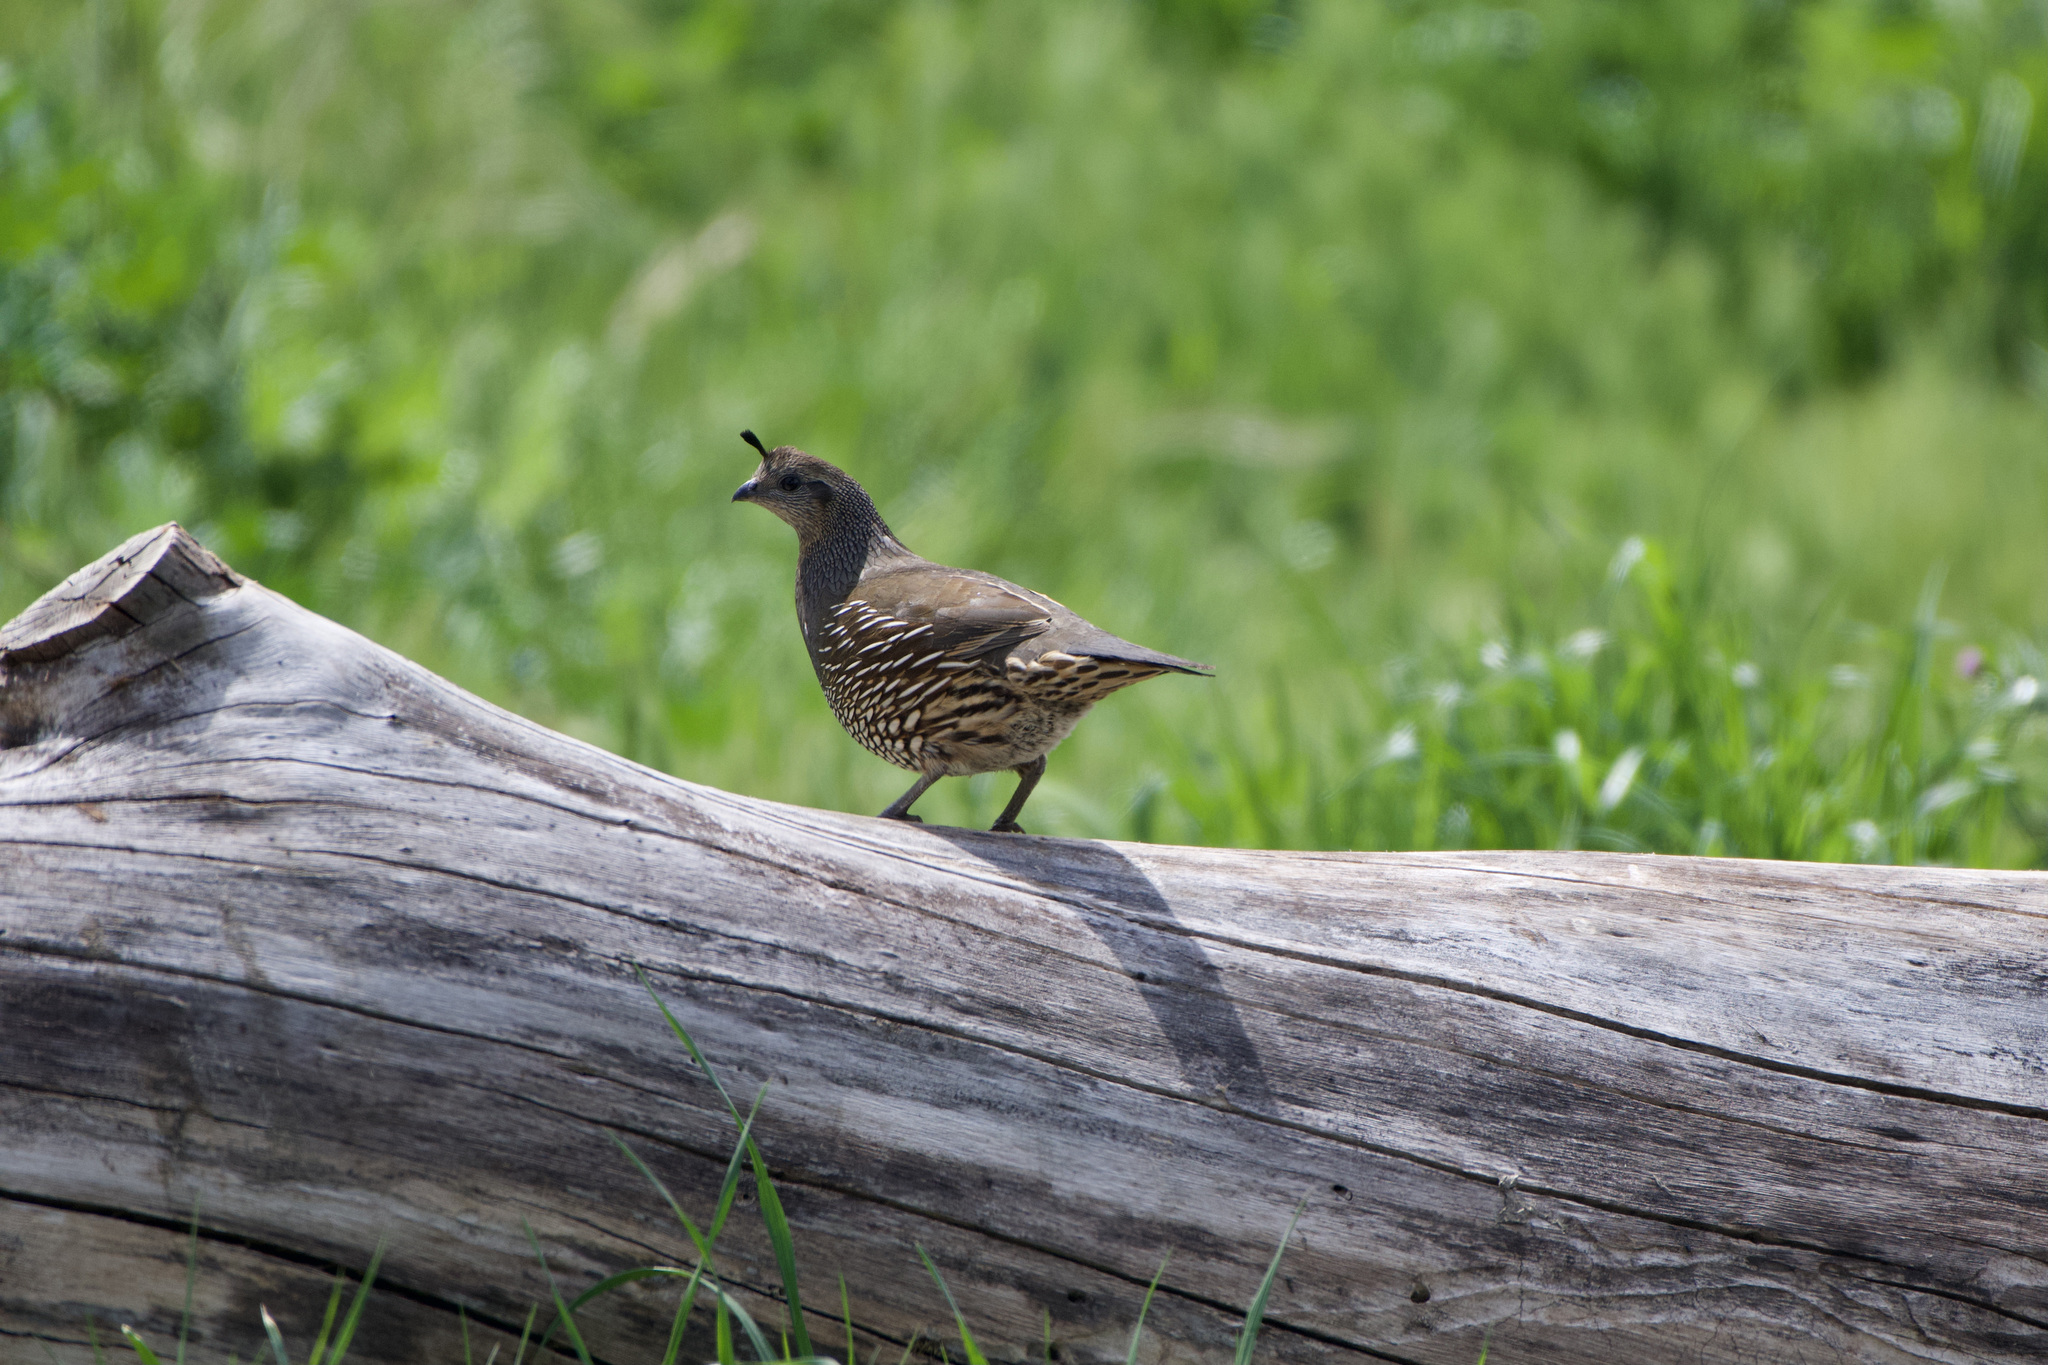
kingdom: Animalia
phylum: Chordata
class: Aves
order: Galliformes
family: Odontophoridae
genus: Callipepla
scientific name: Callipepla californica
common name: California quail
